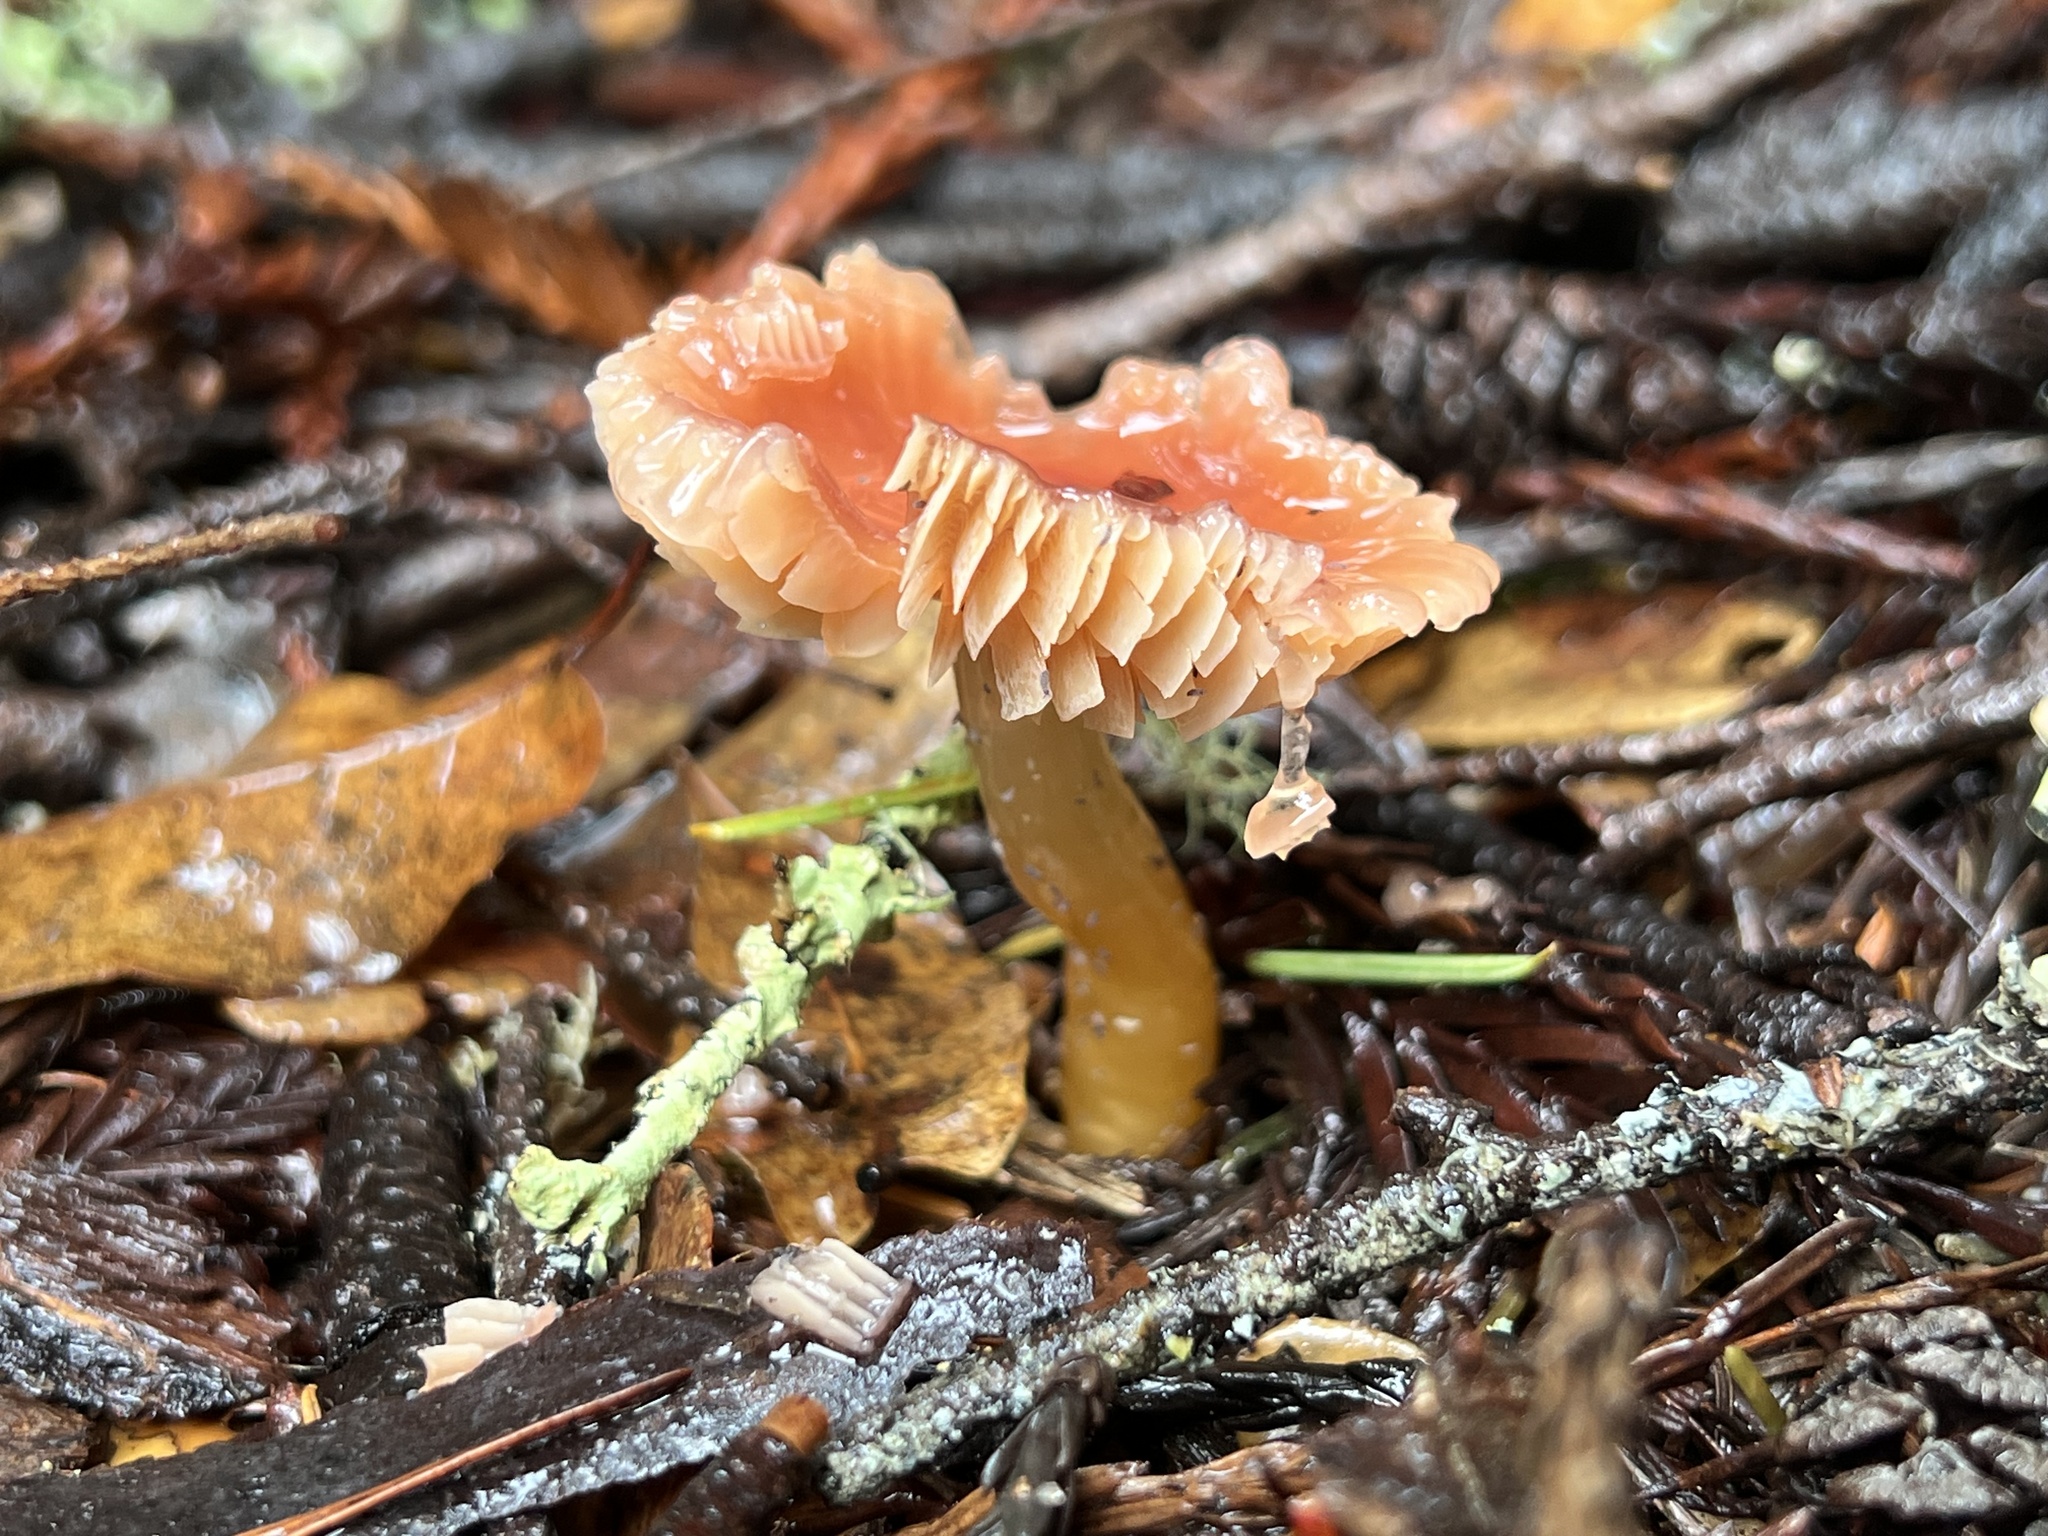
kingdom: Fungi
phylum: Basidiomycota
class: Agaricomycetes
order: Agaricales
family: Hygrophoraceae
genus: Gliophorus
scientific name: Gliophorus psittacinus
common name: Parrot wax-cap
